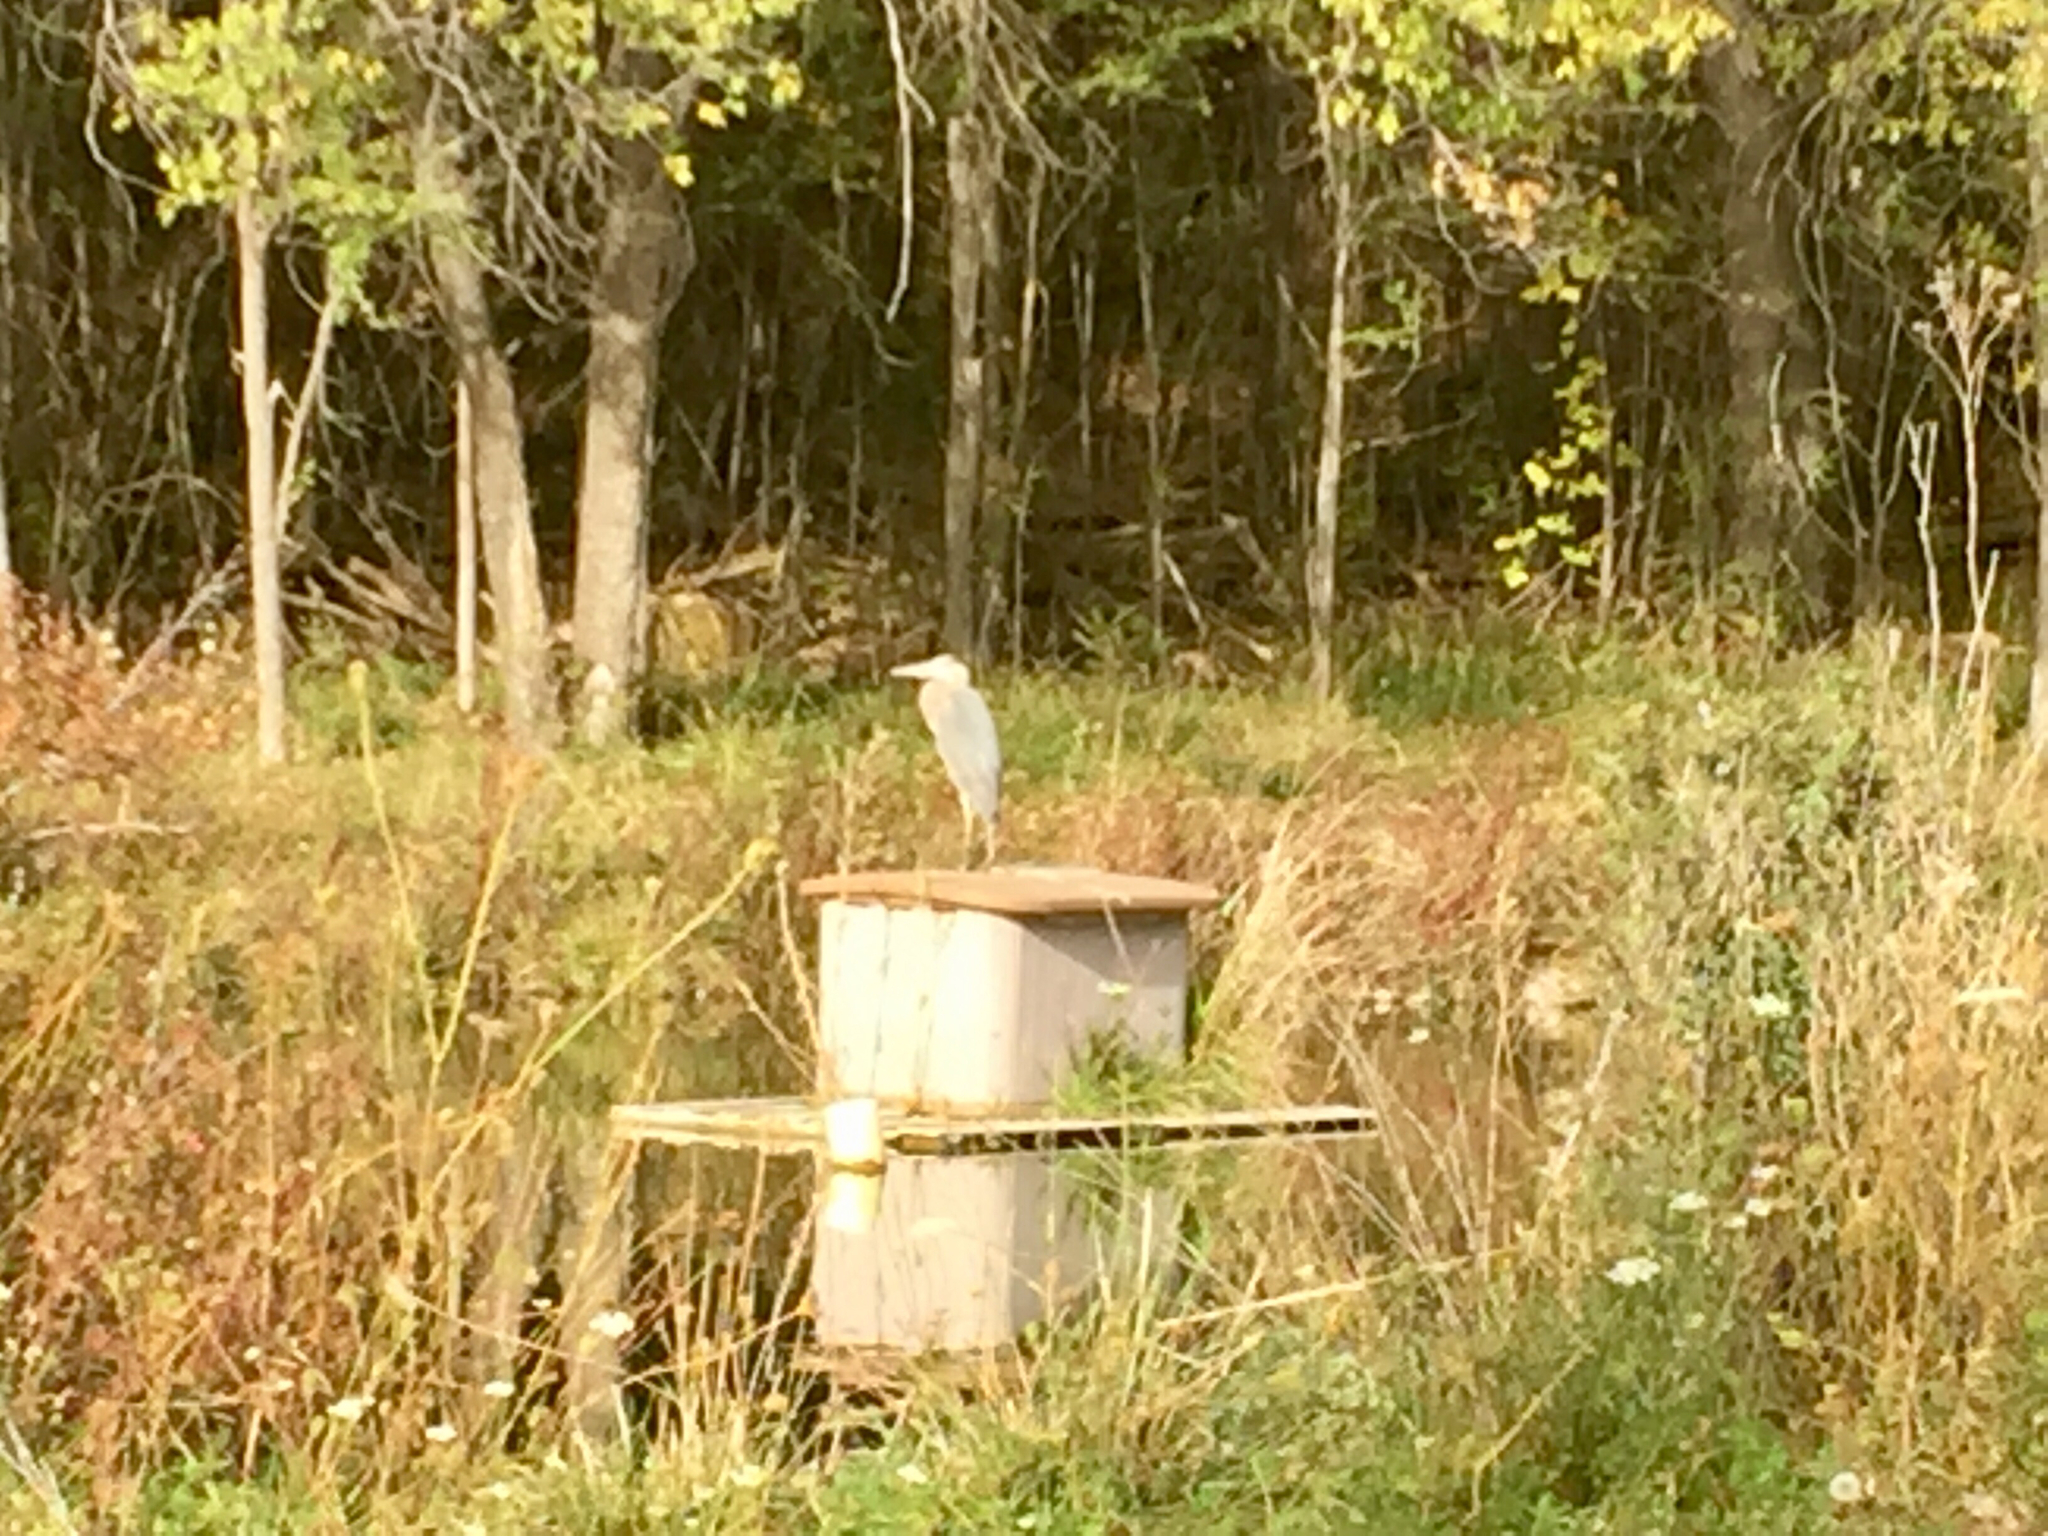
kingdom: Animalia
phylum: Chordata
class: Aves
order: Pelecaniformes
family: Ardeidae
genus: Ardea
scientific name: Ardea herodias
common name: Great blue heron
